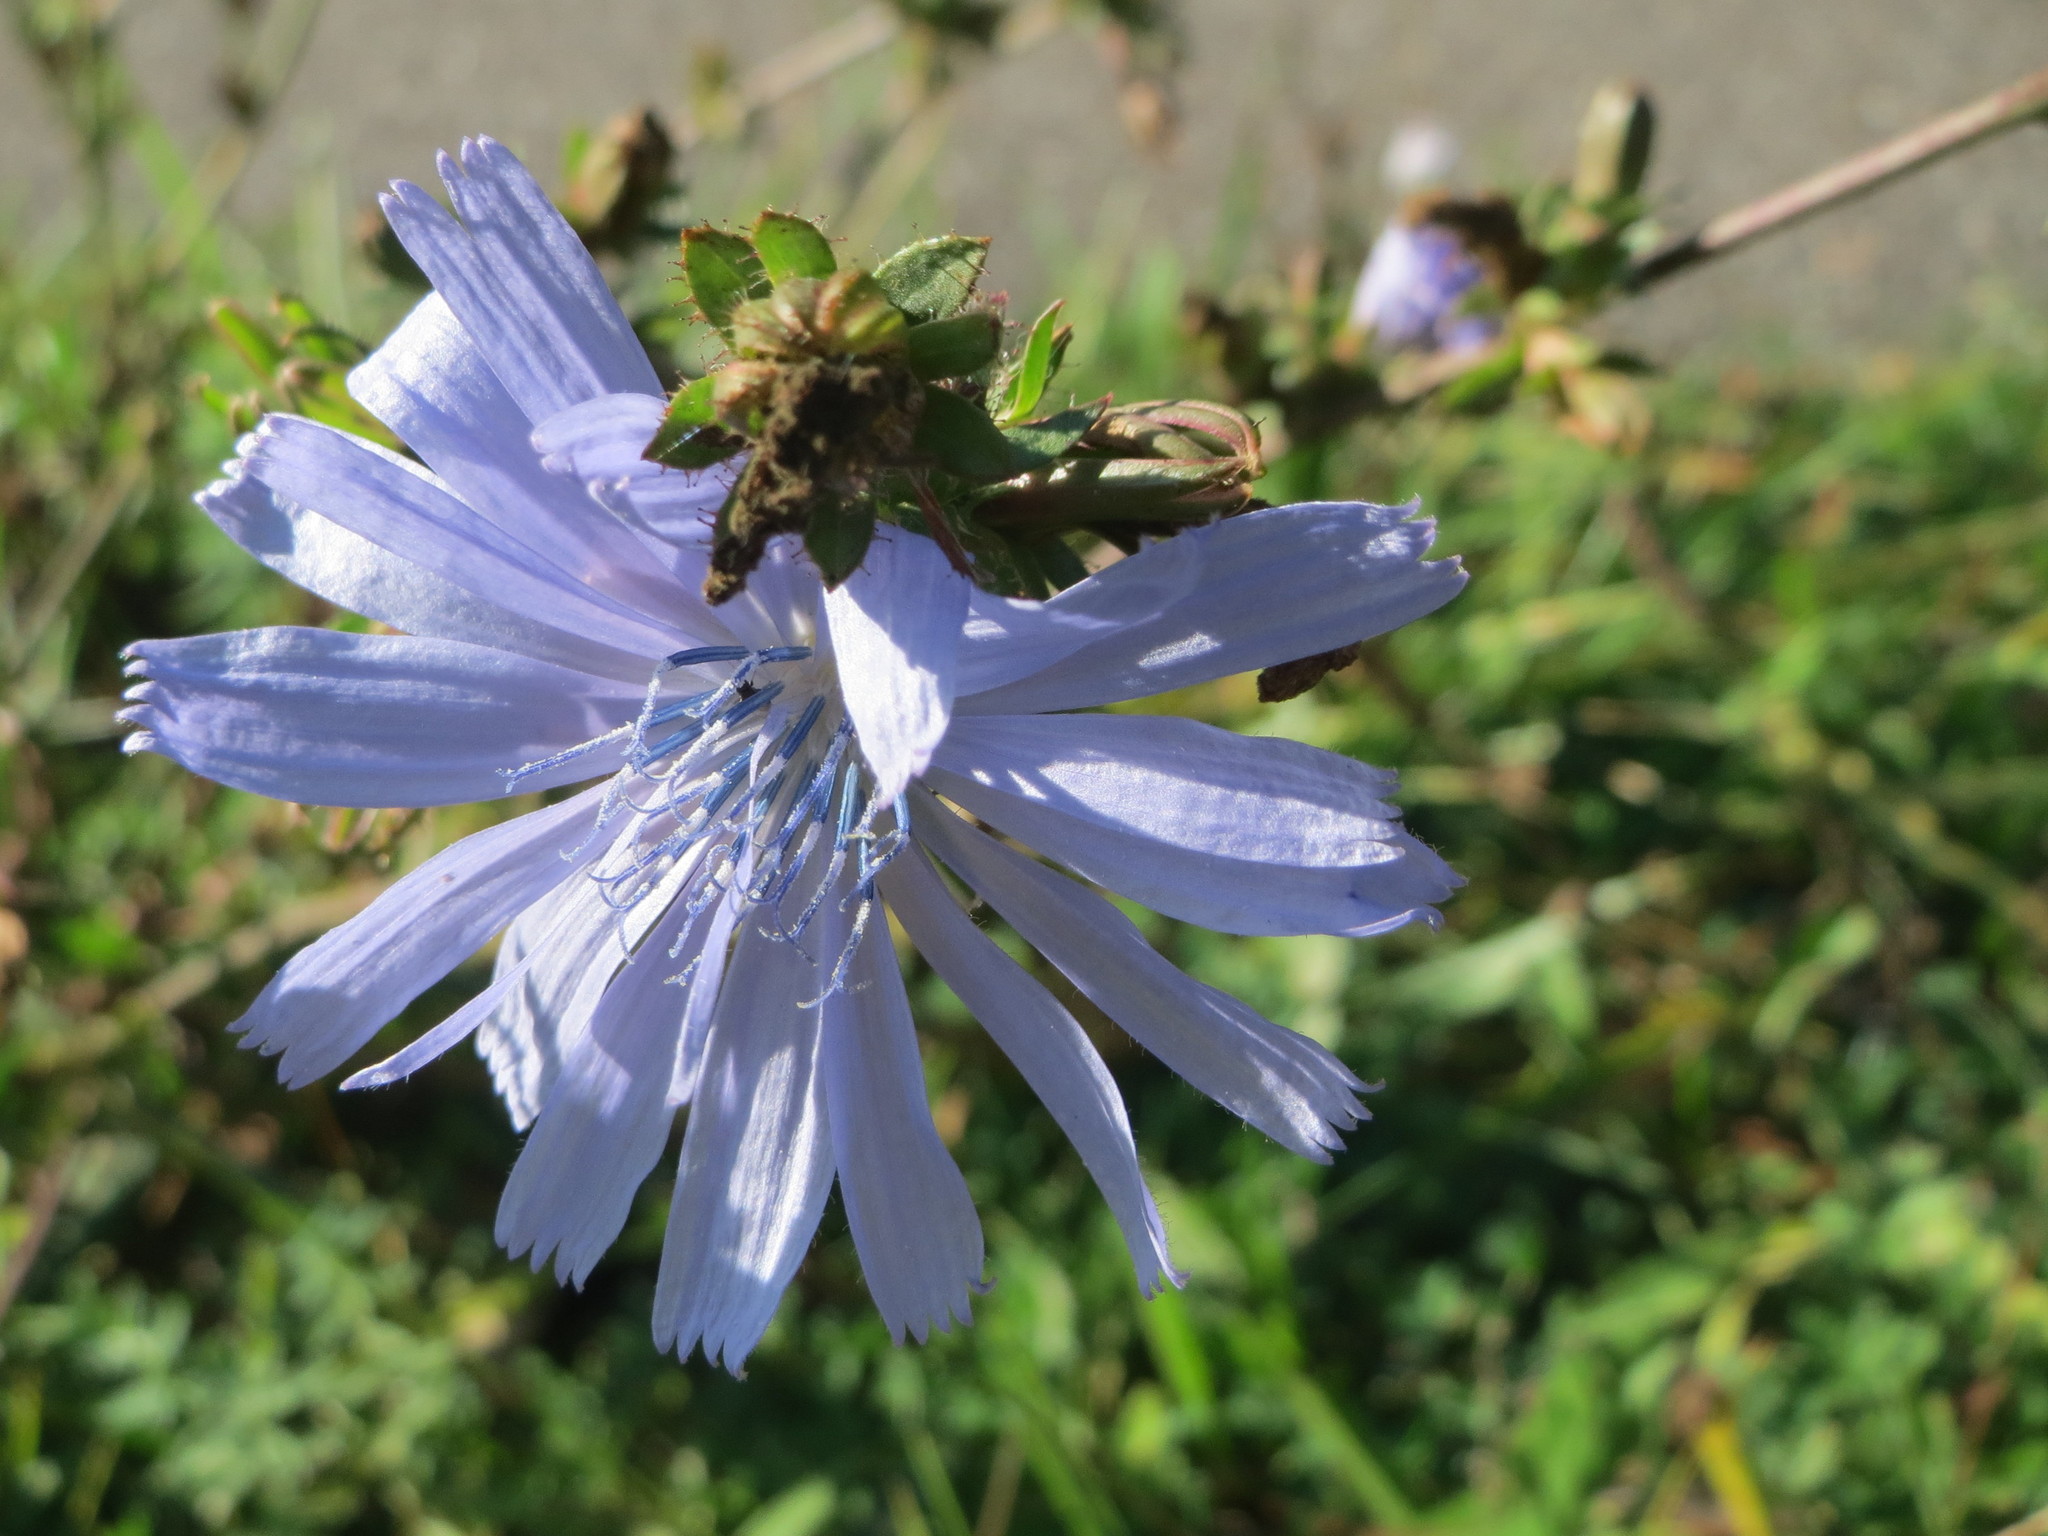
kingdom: Plantae
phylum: Tracheophyta
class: Magnoliopsida
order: Asterales
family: Asteraceae
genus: Cichorium
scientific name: Cichorium intybus
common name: Chicory
